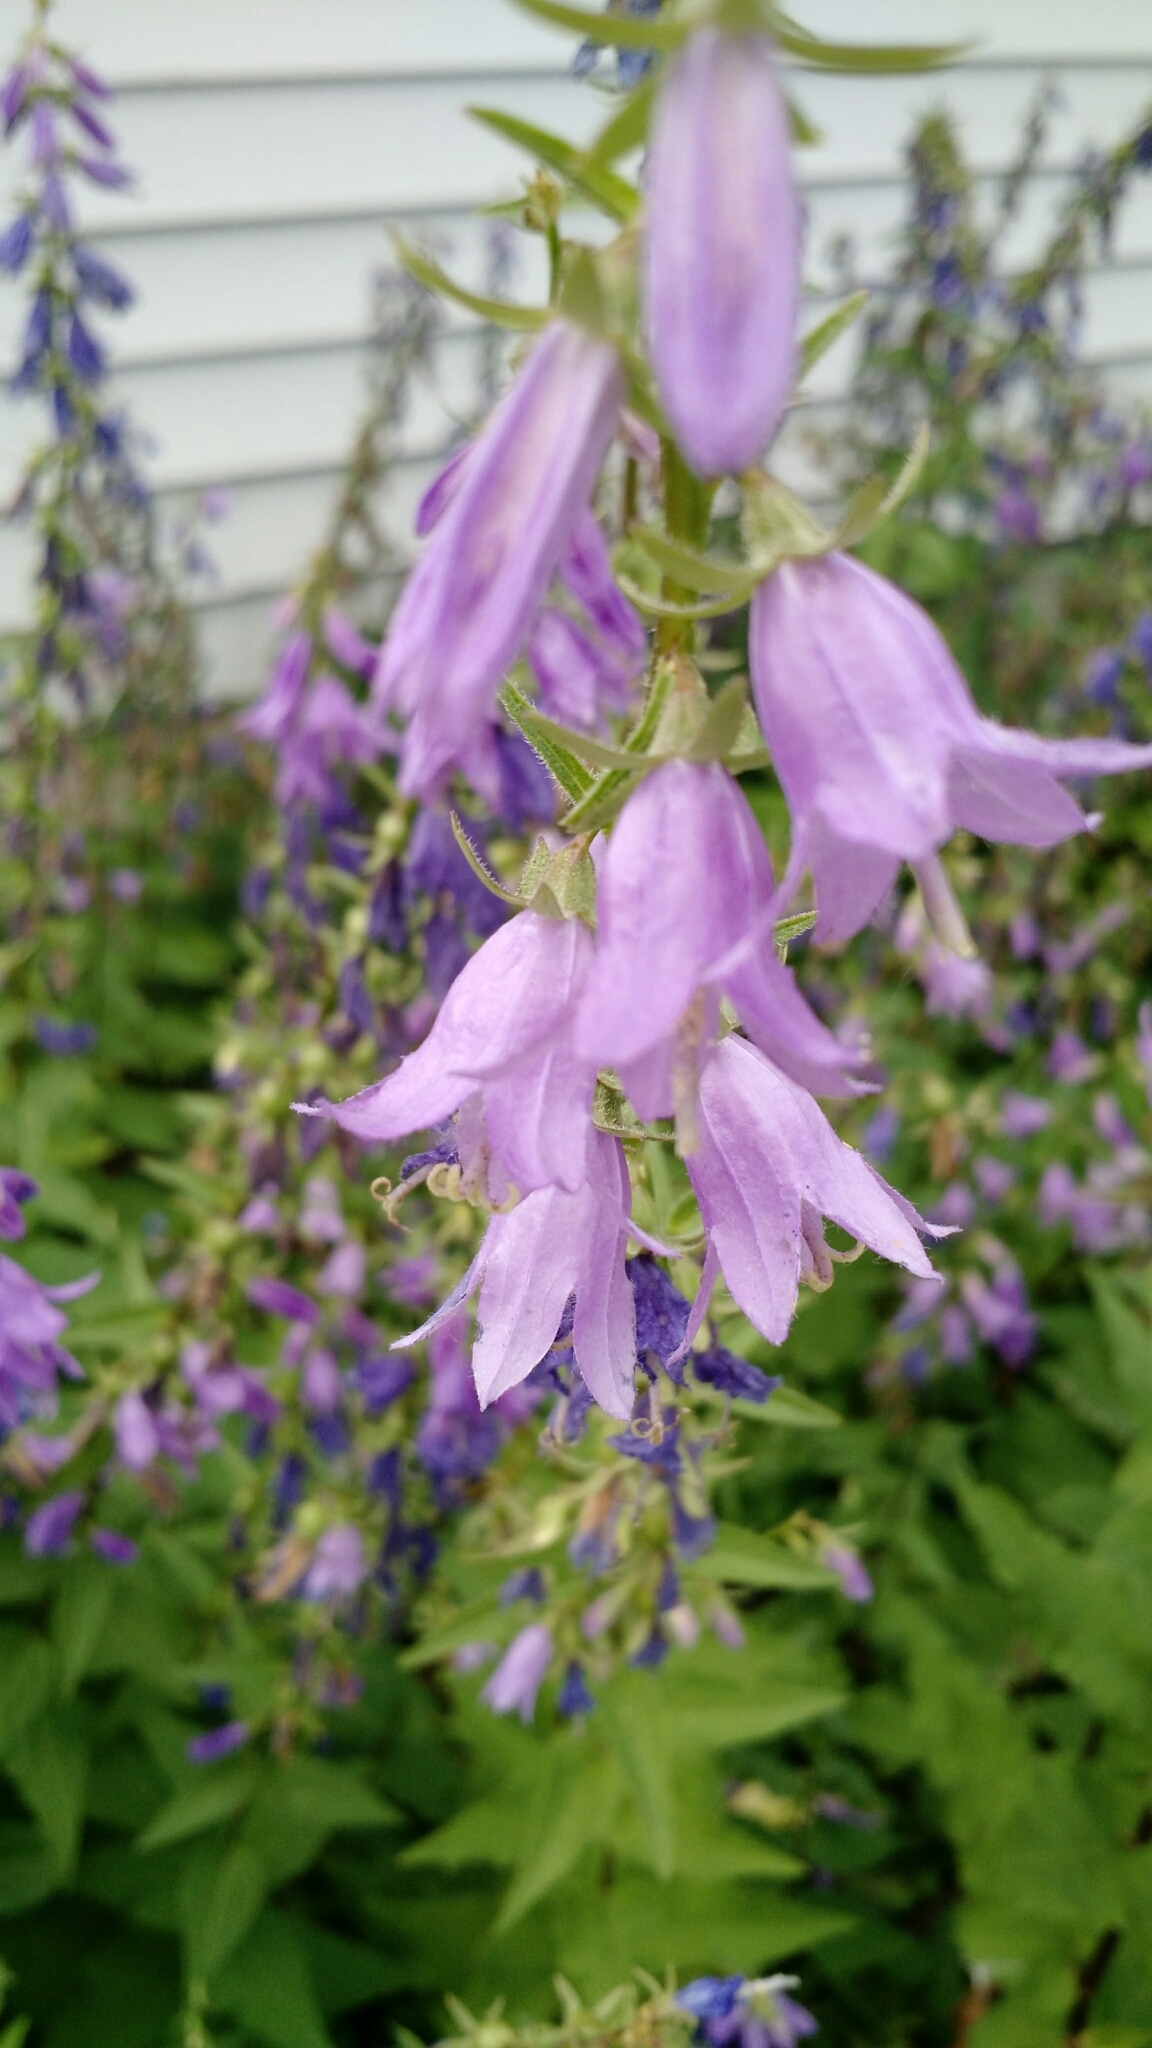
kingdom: Plantae
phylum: Tracheophyta
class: Magnoliopsida
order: Asterales
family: Campanulaceae
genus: Campanula
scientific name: Campanula rapunculoides
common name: Creeping bellflower
